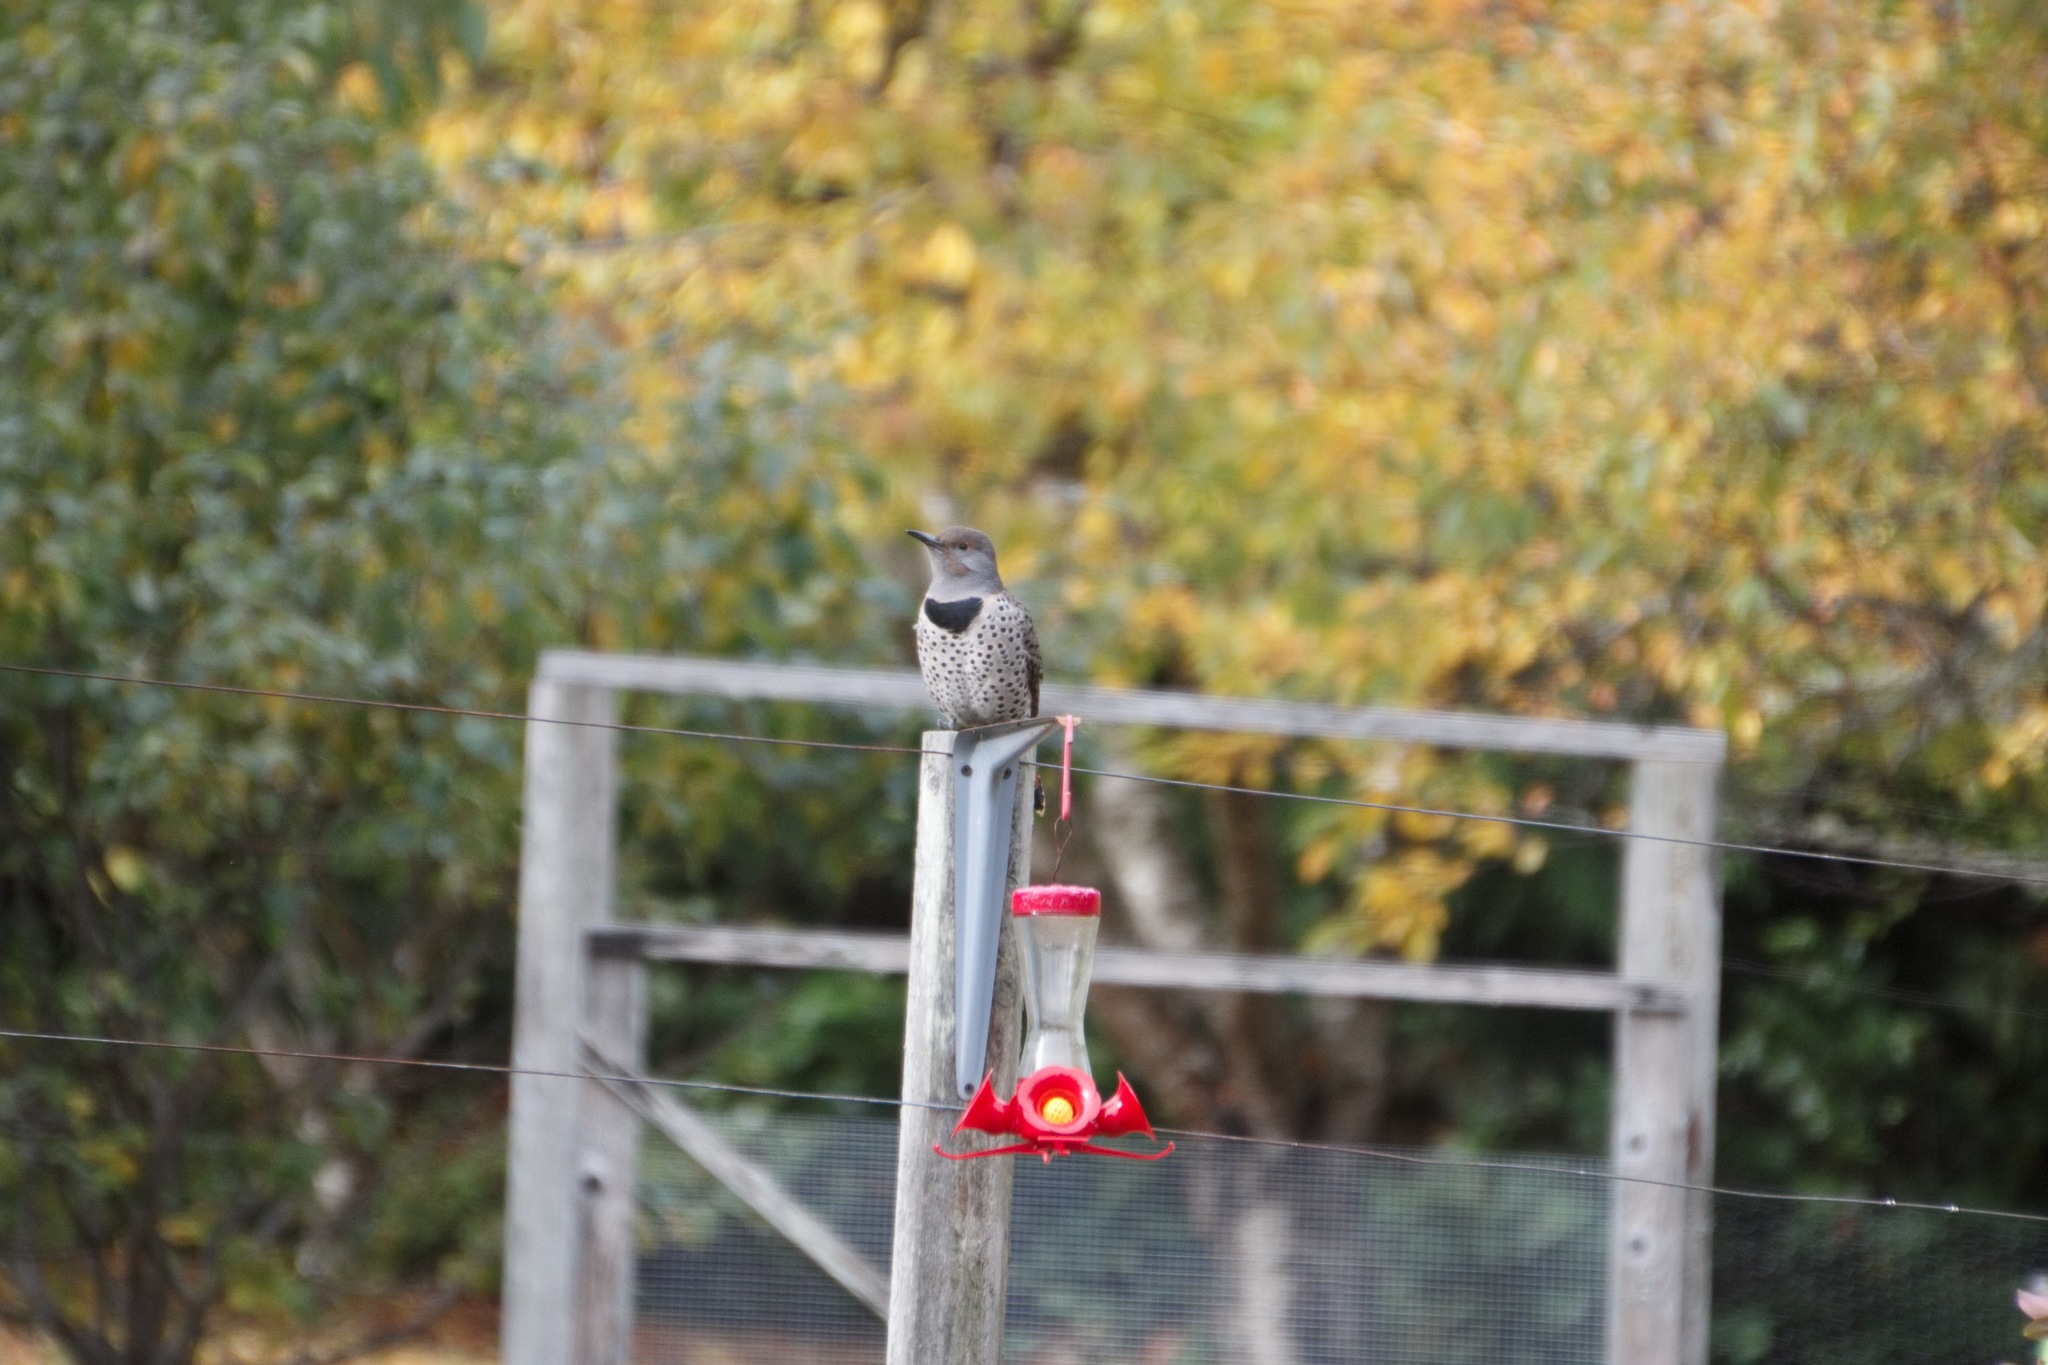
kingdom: Animalia
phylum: Chordata
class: Aves
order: Piciformes
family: Picidae
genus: Colaptes
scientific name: Colaptes auratus
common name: Northern flicker
